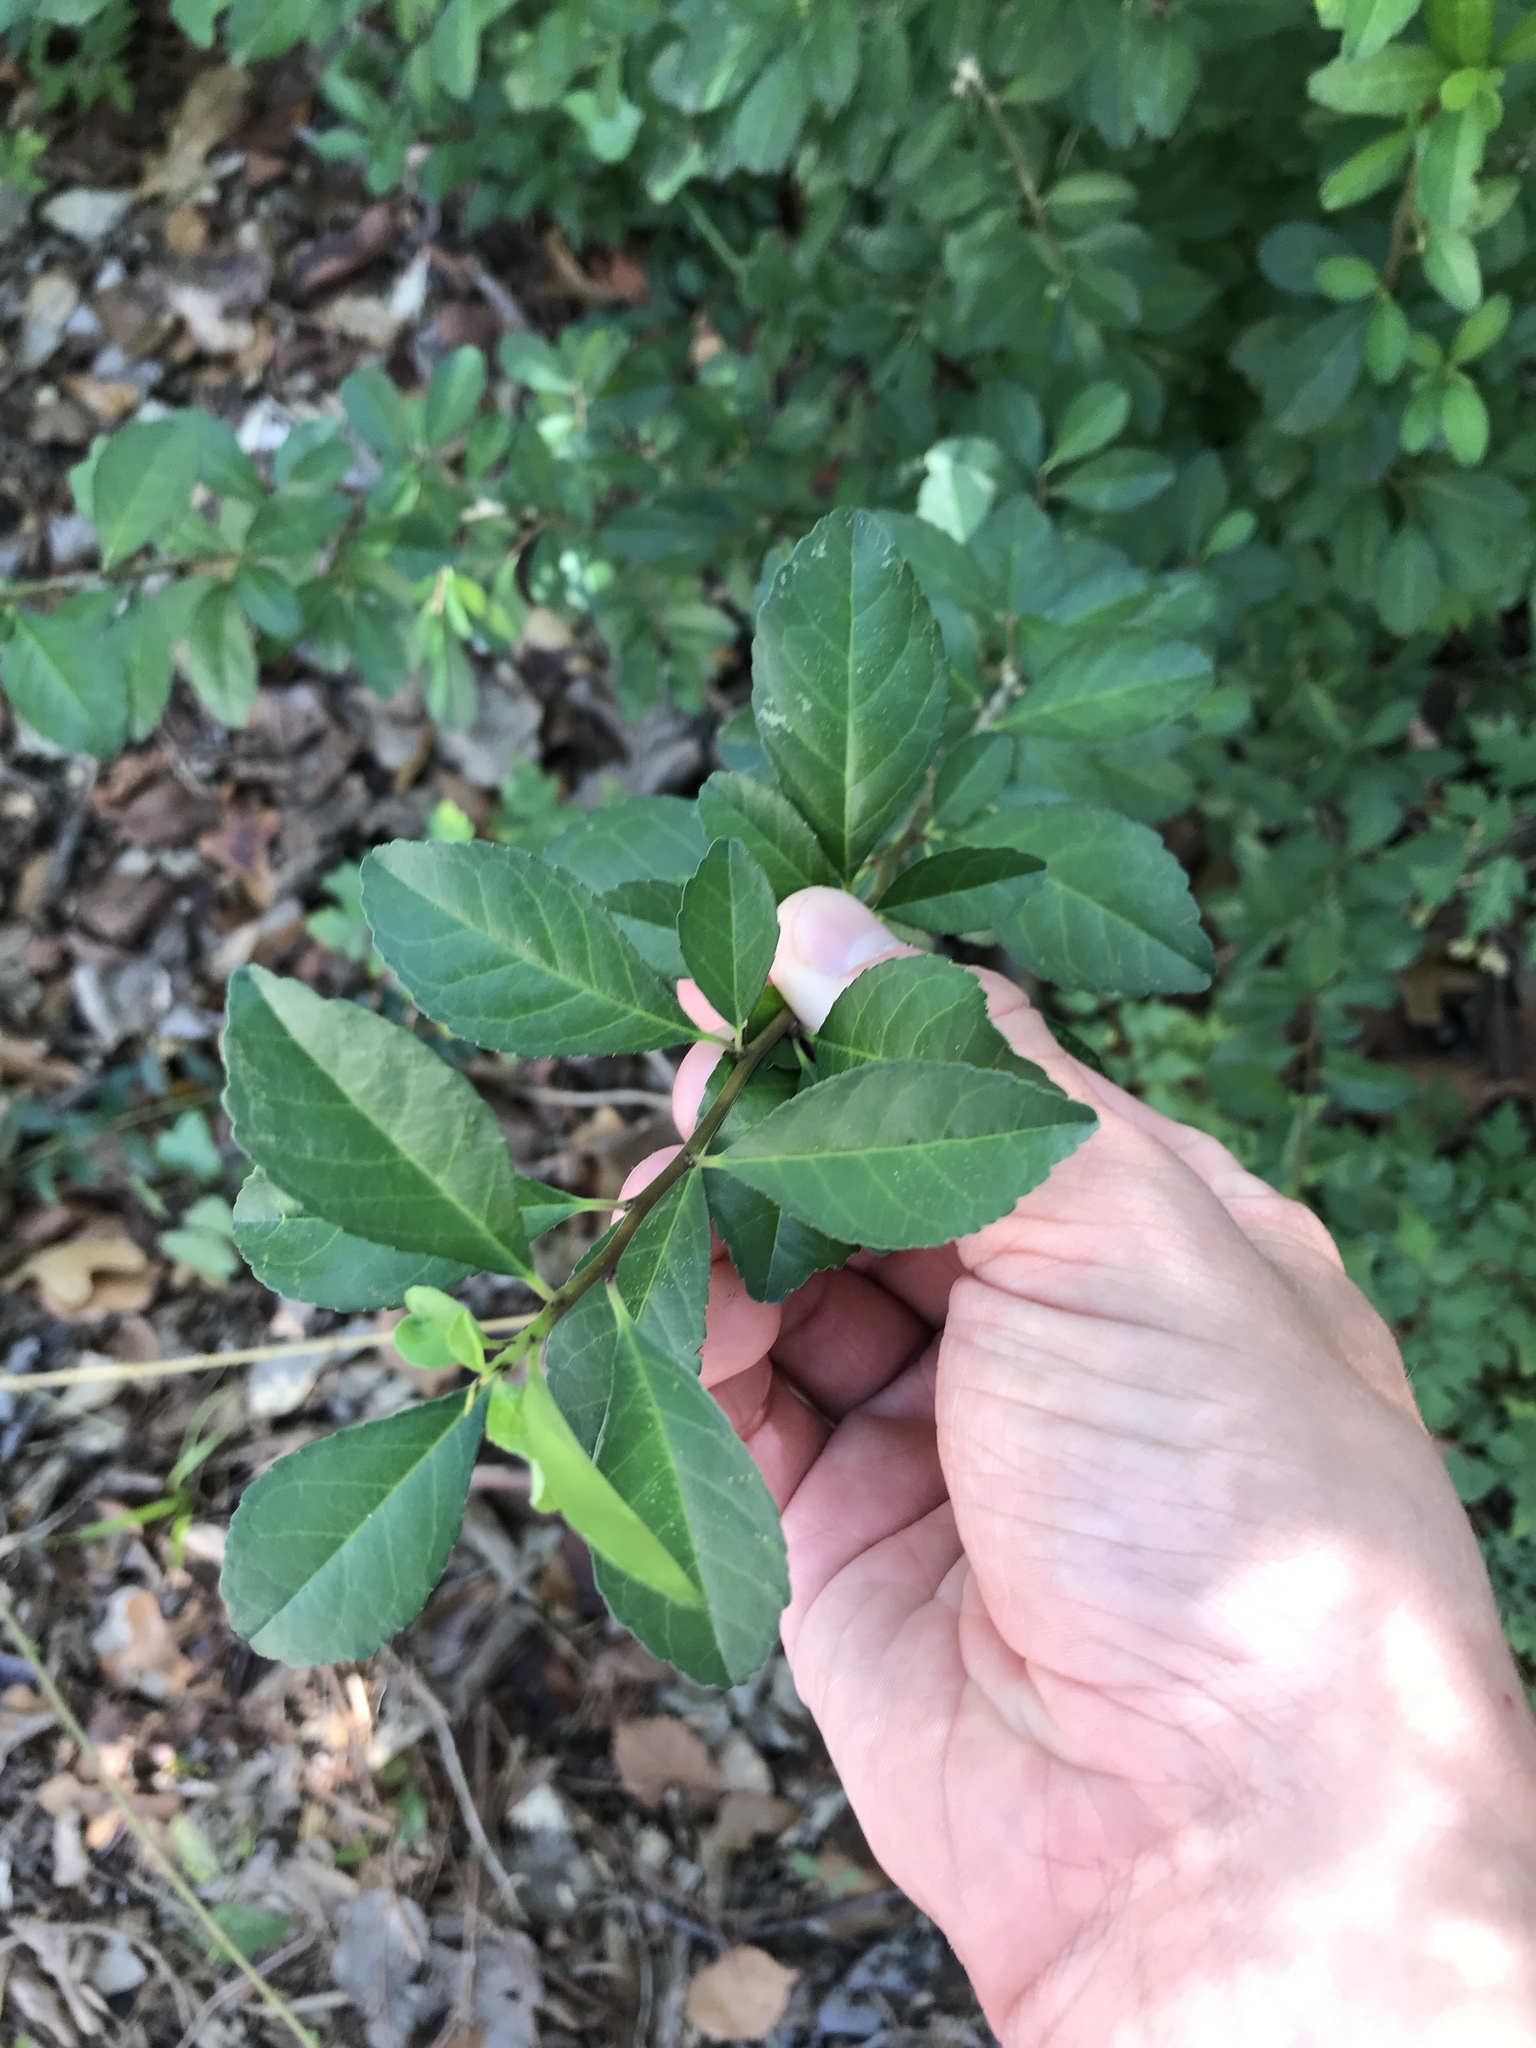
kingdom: Plantae
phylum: Tracheophyta
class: Magnoliopsida
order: Aquifoliales
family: Aquifoliaceae
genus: Ilex
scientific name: Ilex decidua
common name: Possum-haw
